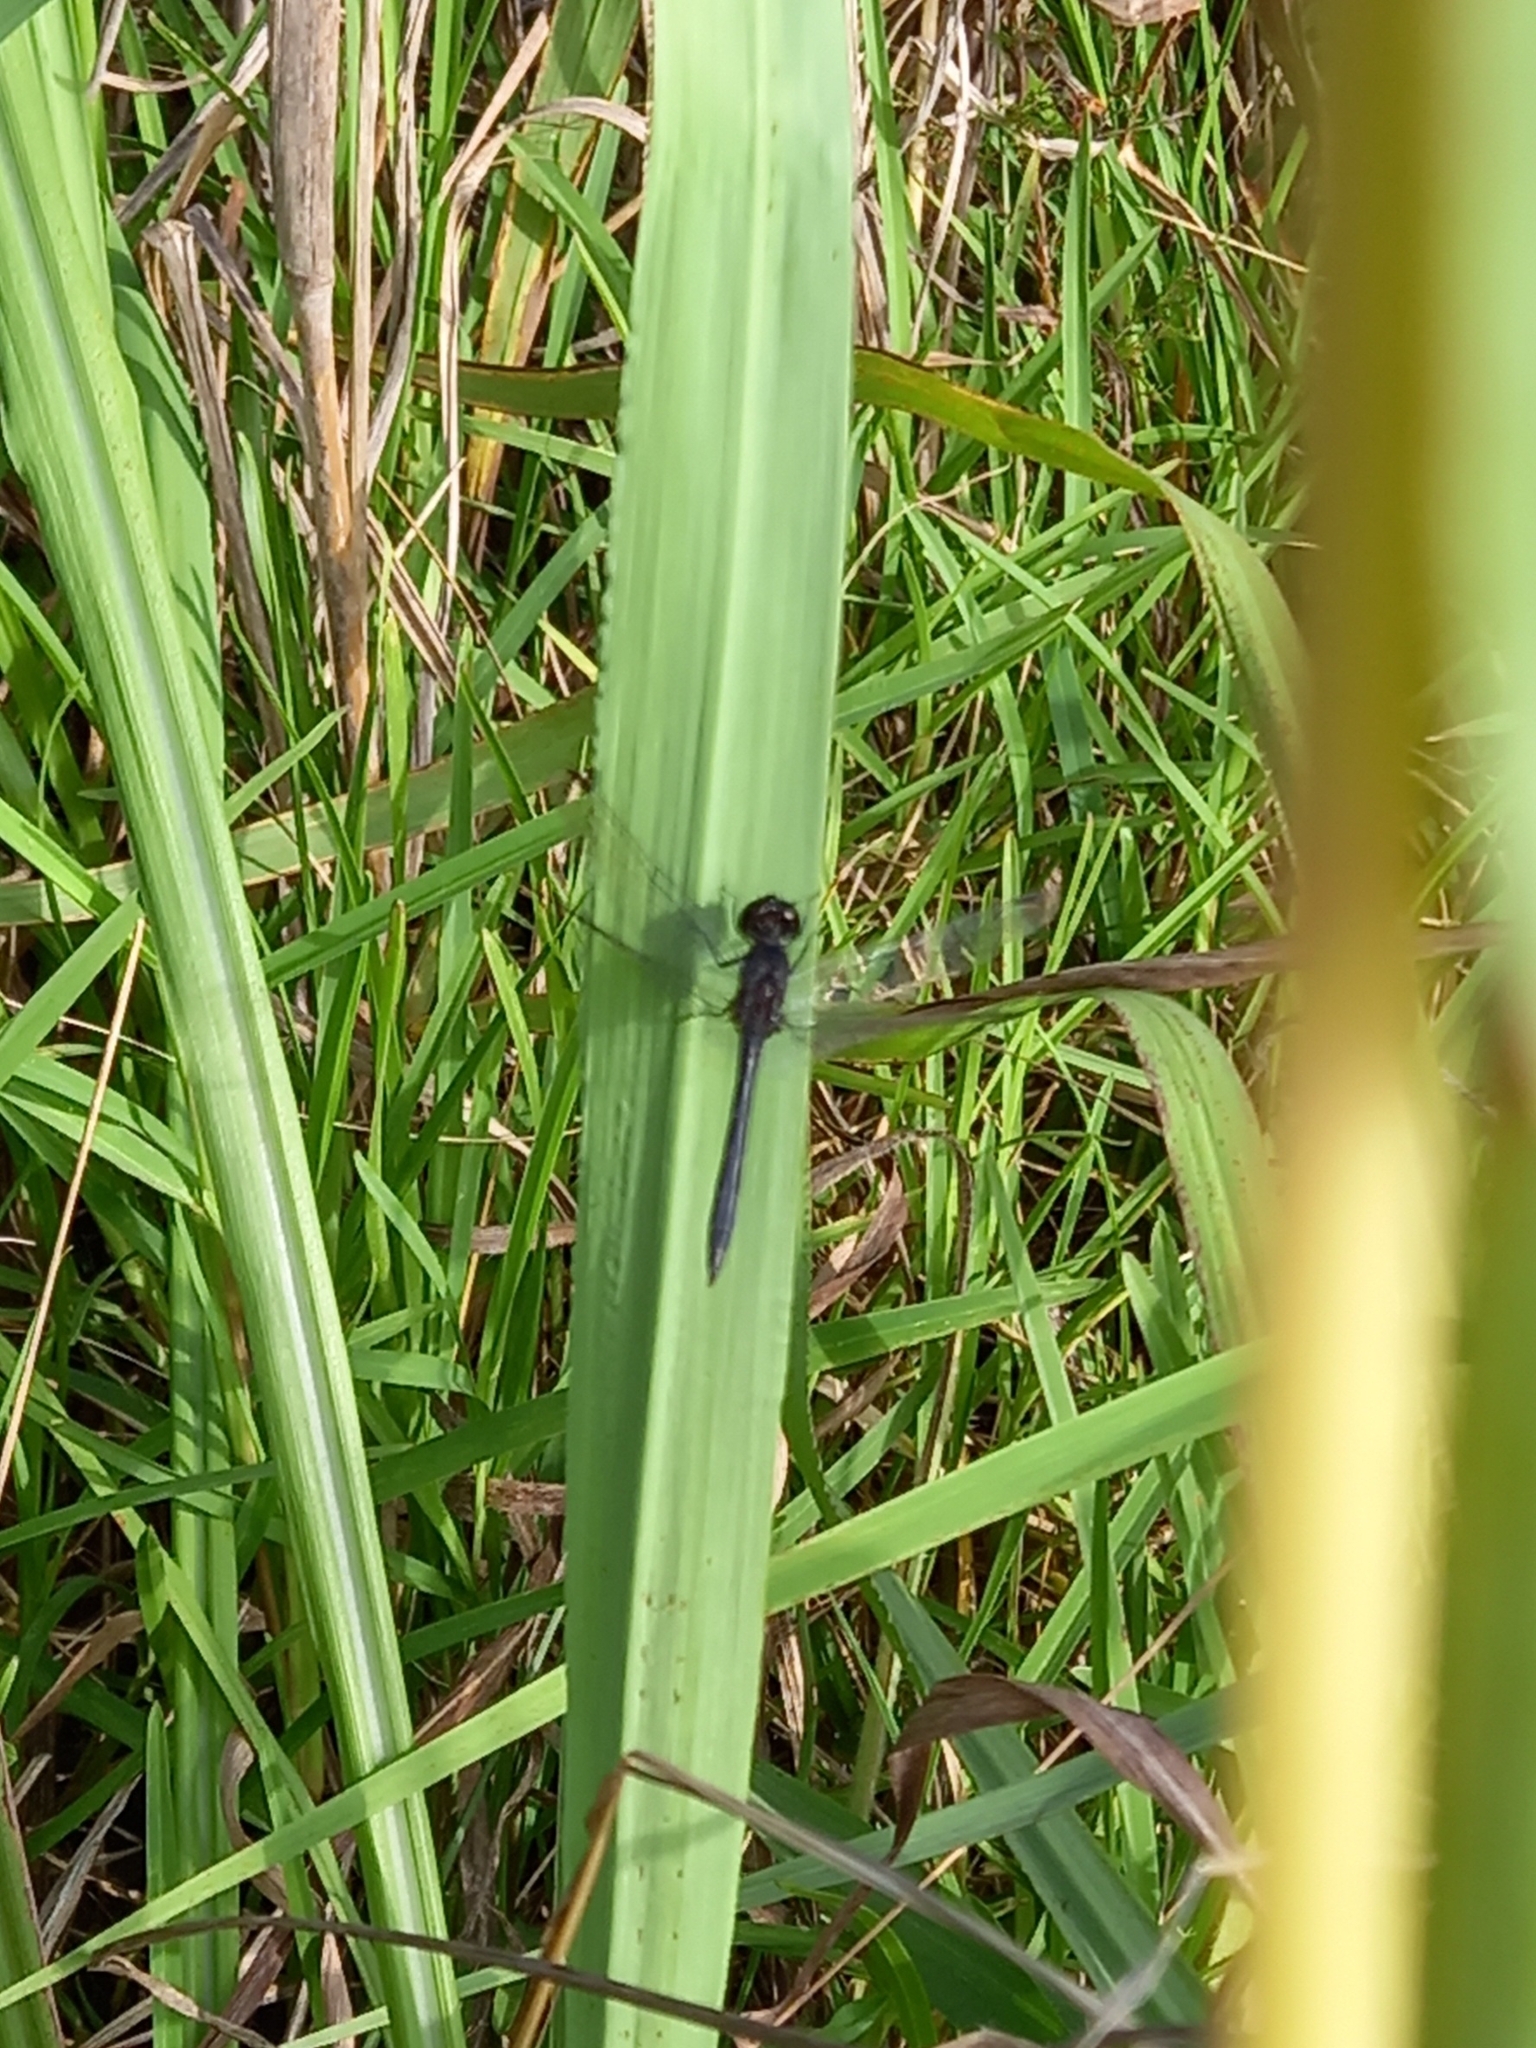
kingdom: Animalia
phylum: Arthropoda
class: Insecta
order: Odonata
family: Libellulidae
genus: Diplacodes
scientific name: Diplacodes lefebvrii
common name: Black percher
